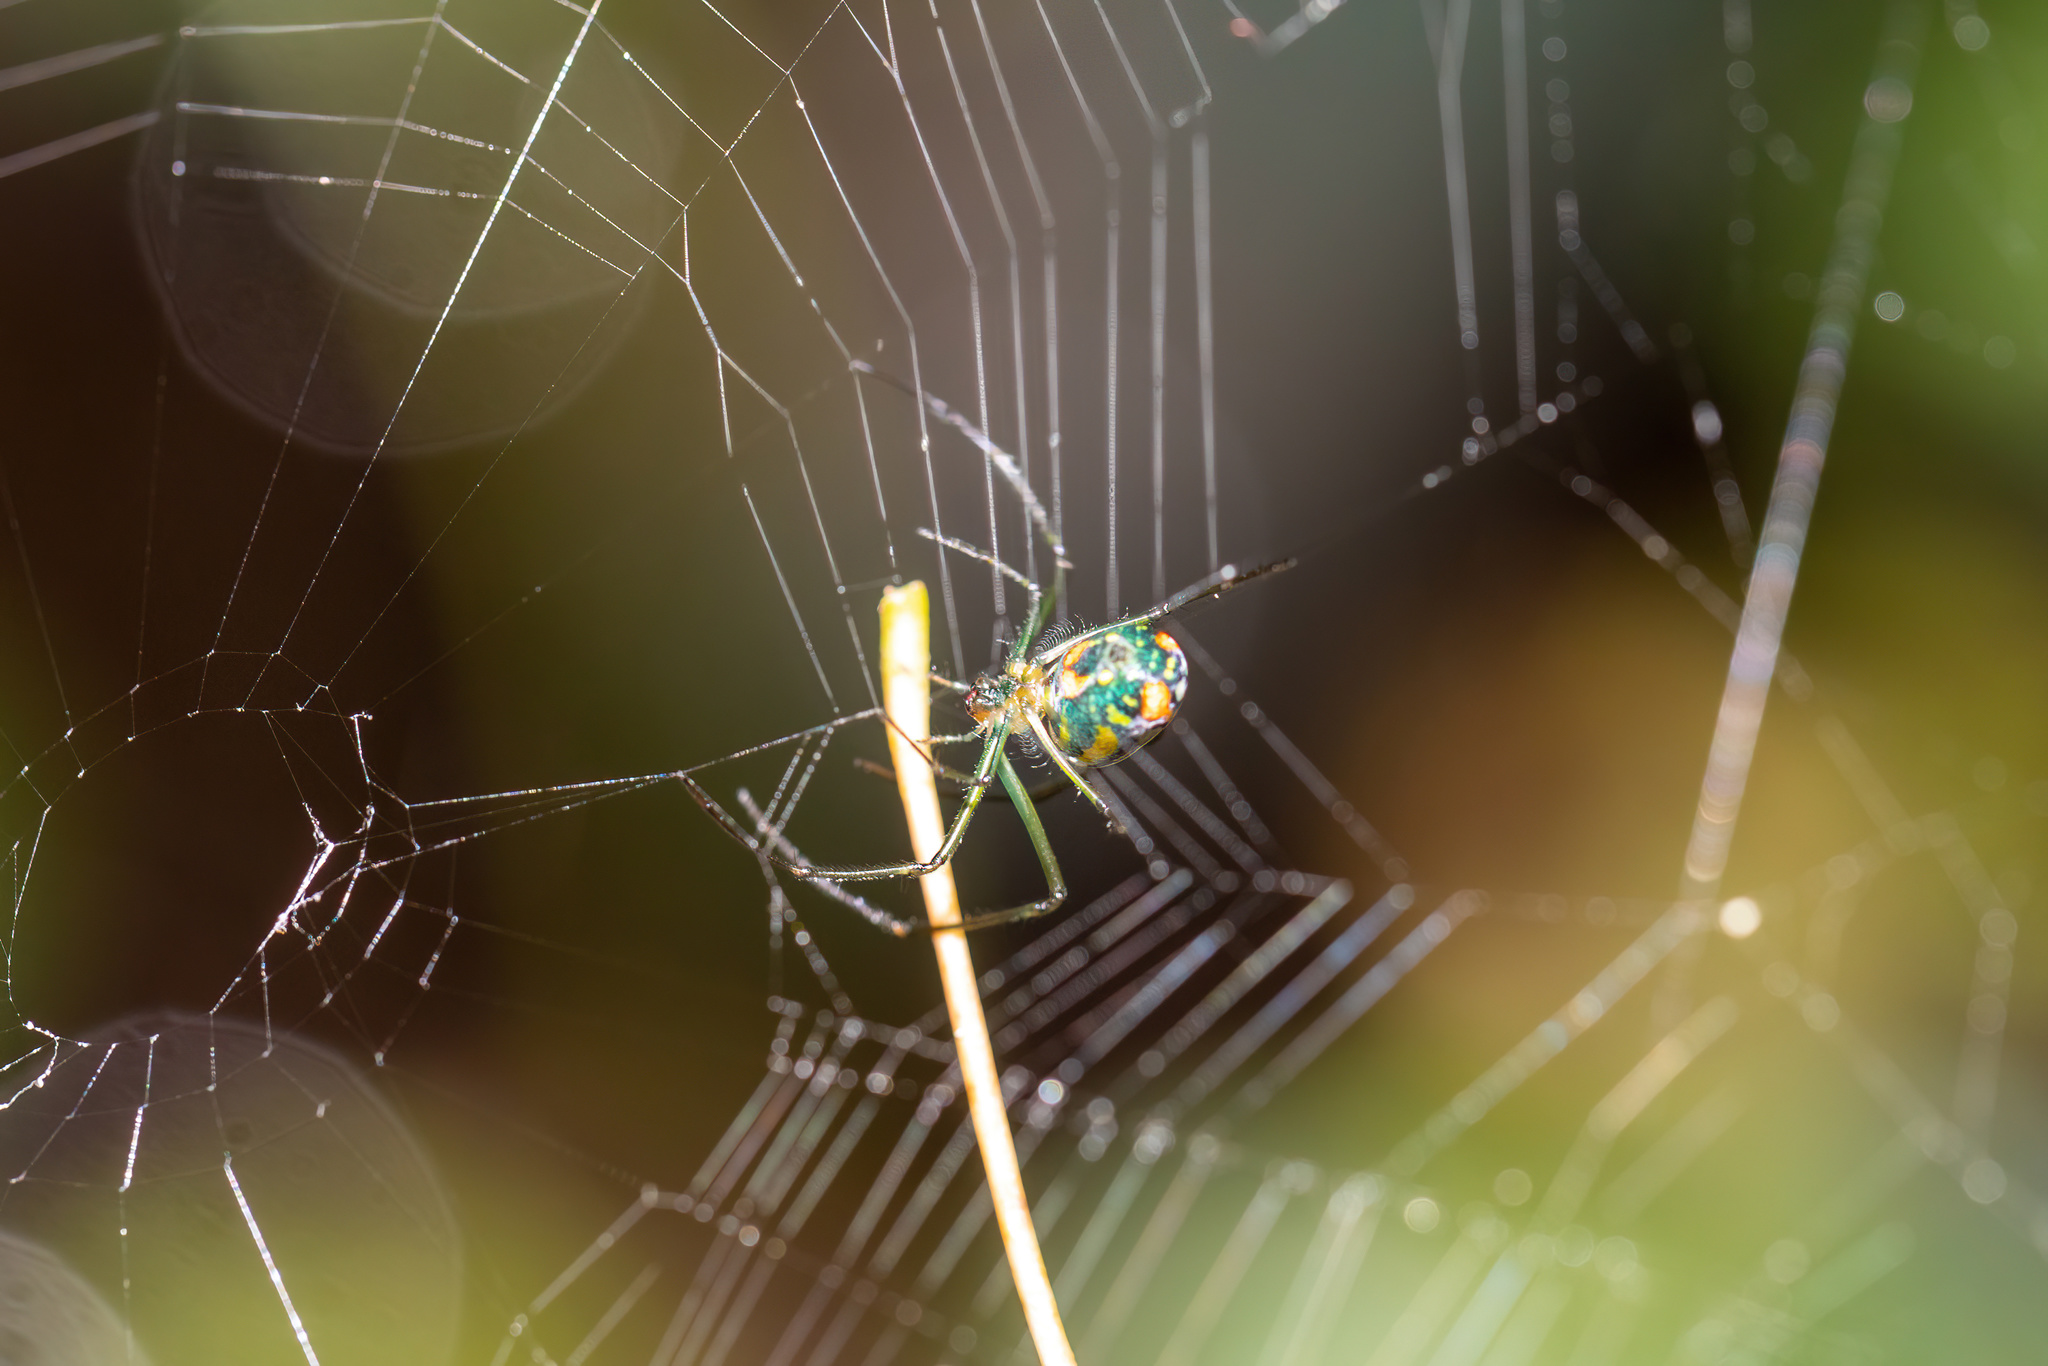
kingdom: Animalia
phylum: Arthropoda
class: Arachnida
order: Araneae
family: Tetragnathidae
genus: Leucauge
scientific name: Leucauge argyrobapta
